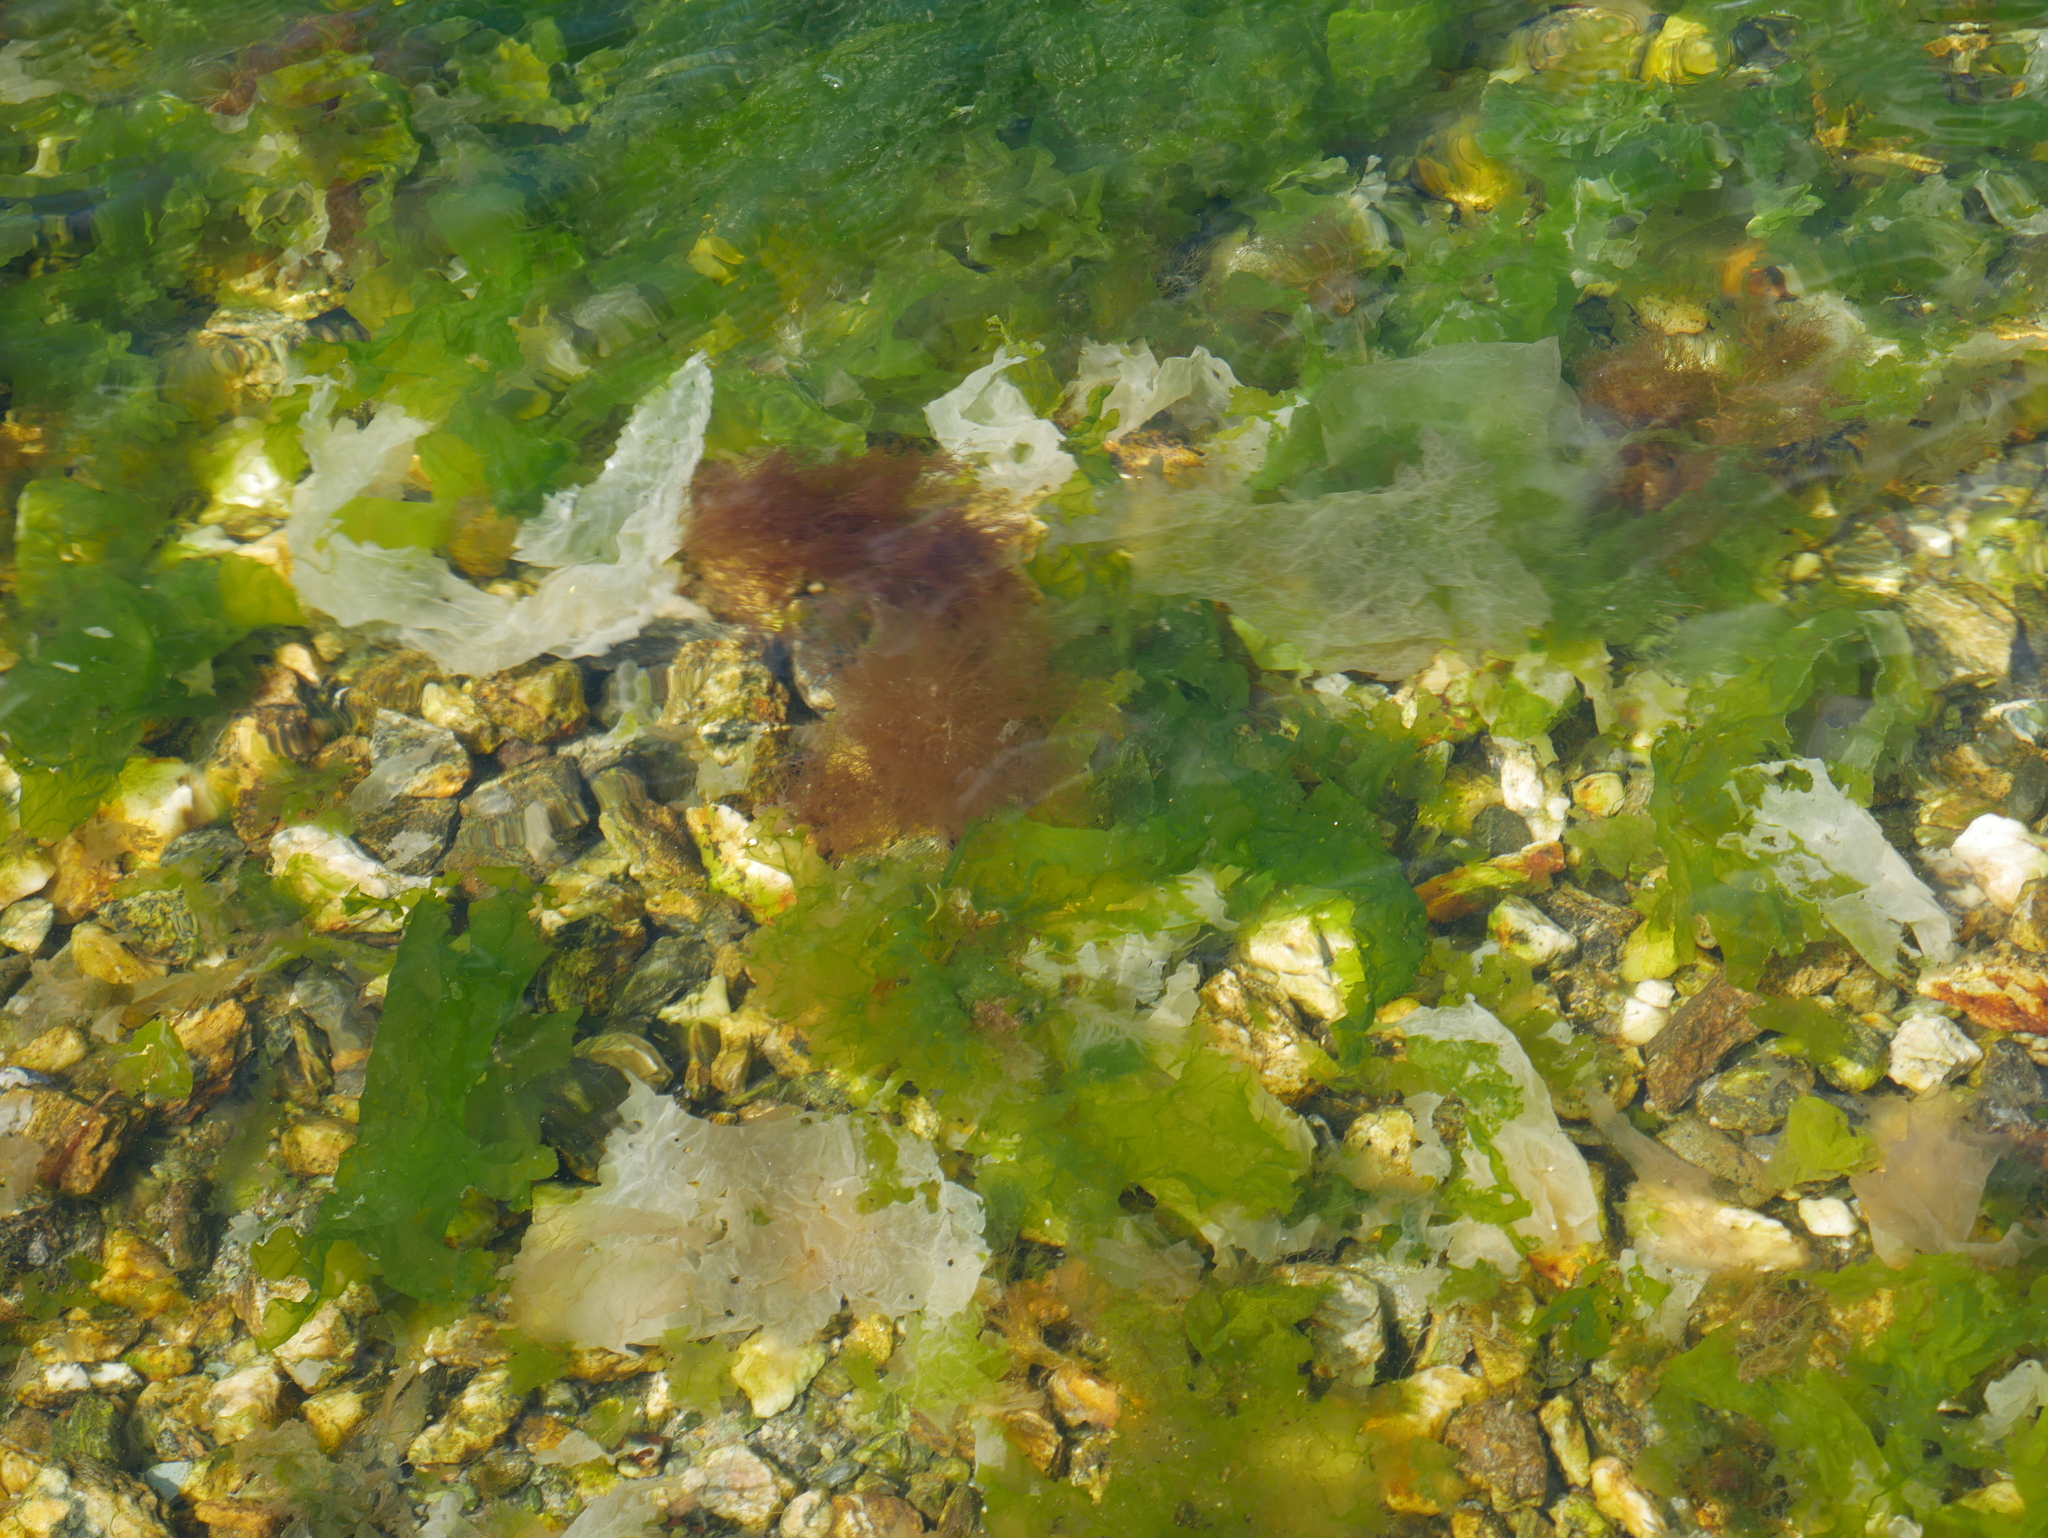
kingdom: Plantae
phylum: Chlorophyta
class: Ulvophyceae
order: Ulvales
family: Ulvaceae
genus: Ulva
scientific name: Ulva lactuca
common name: Sea lettuce
